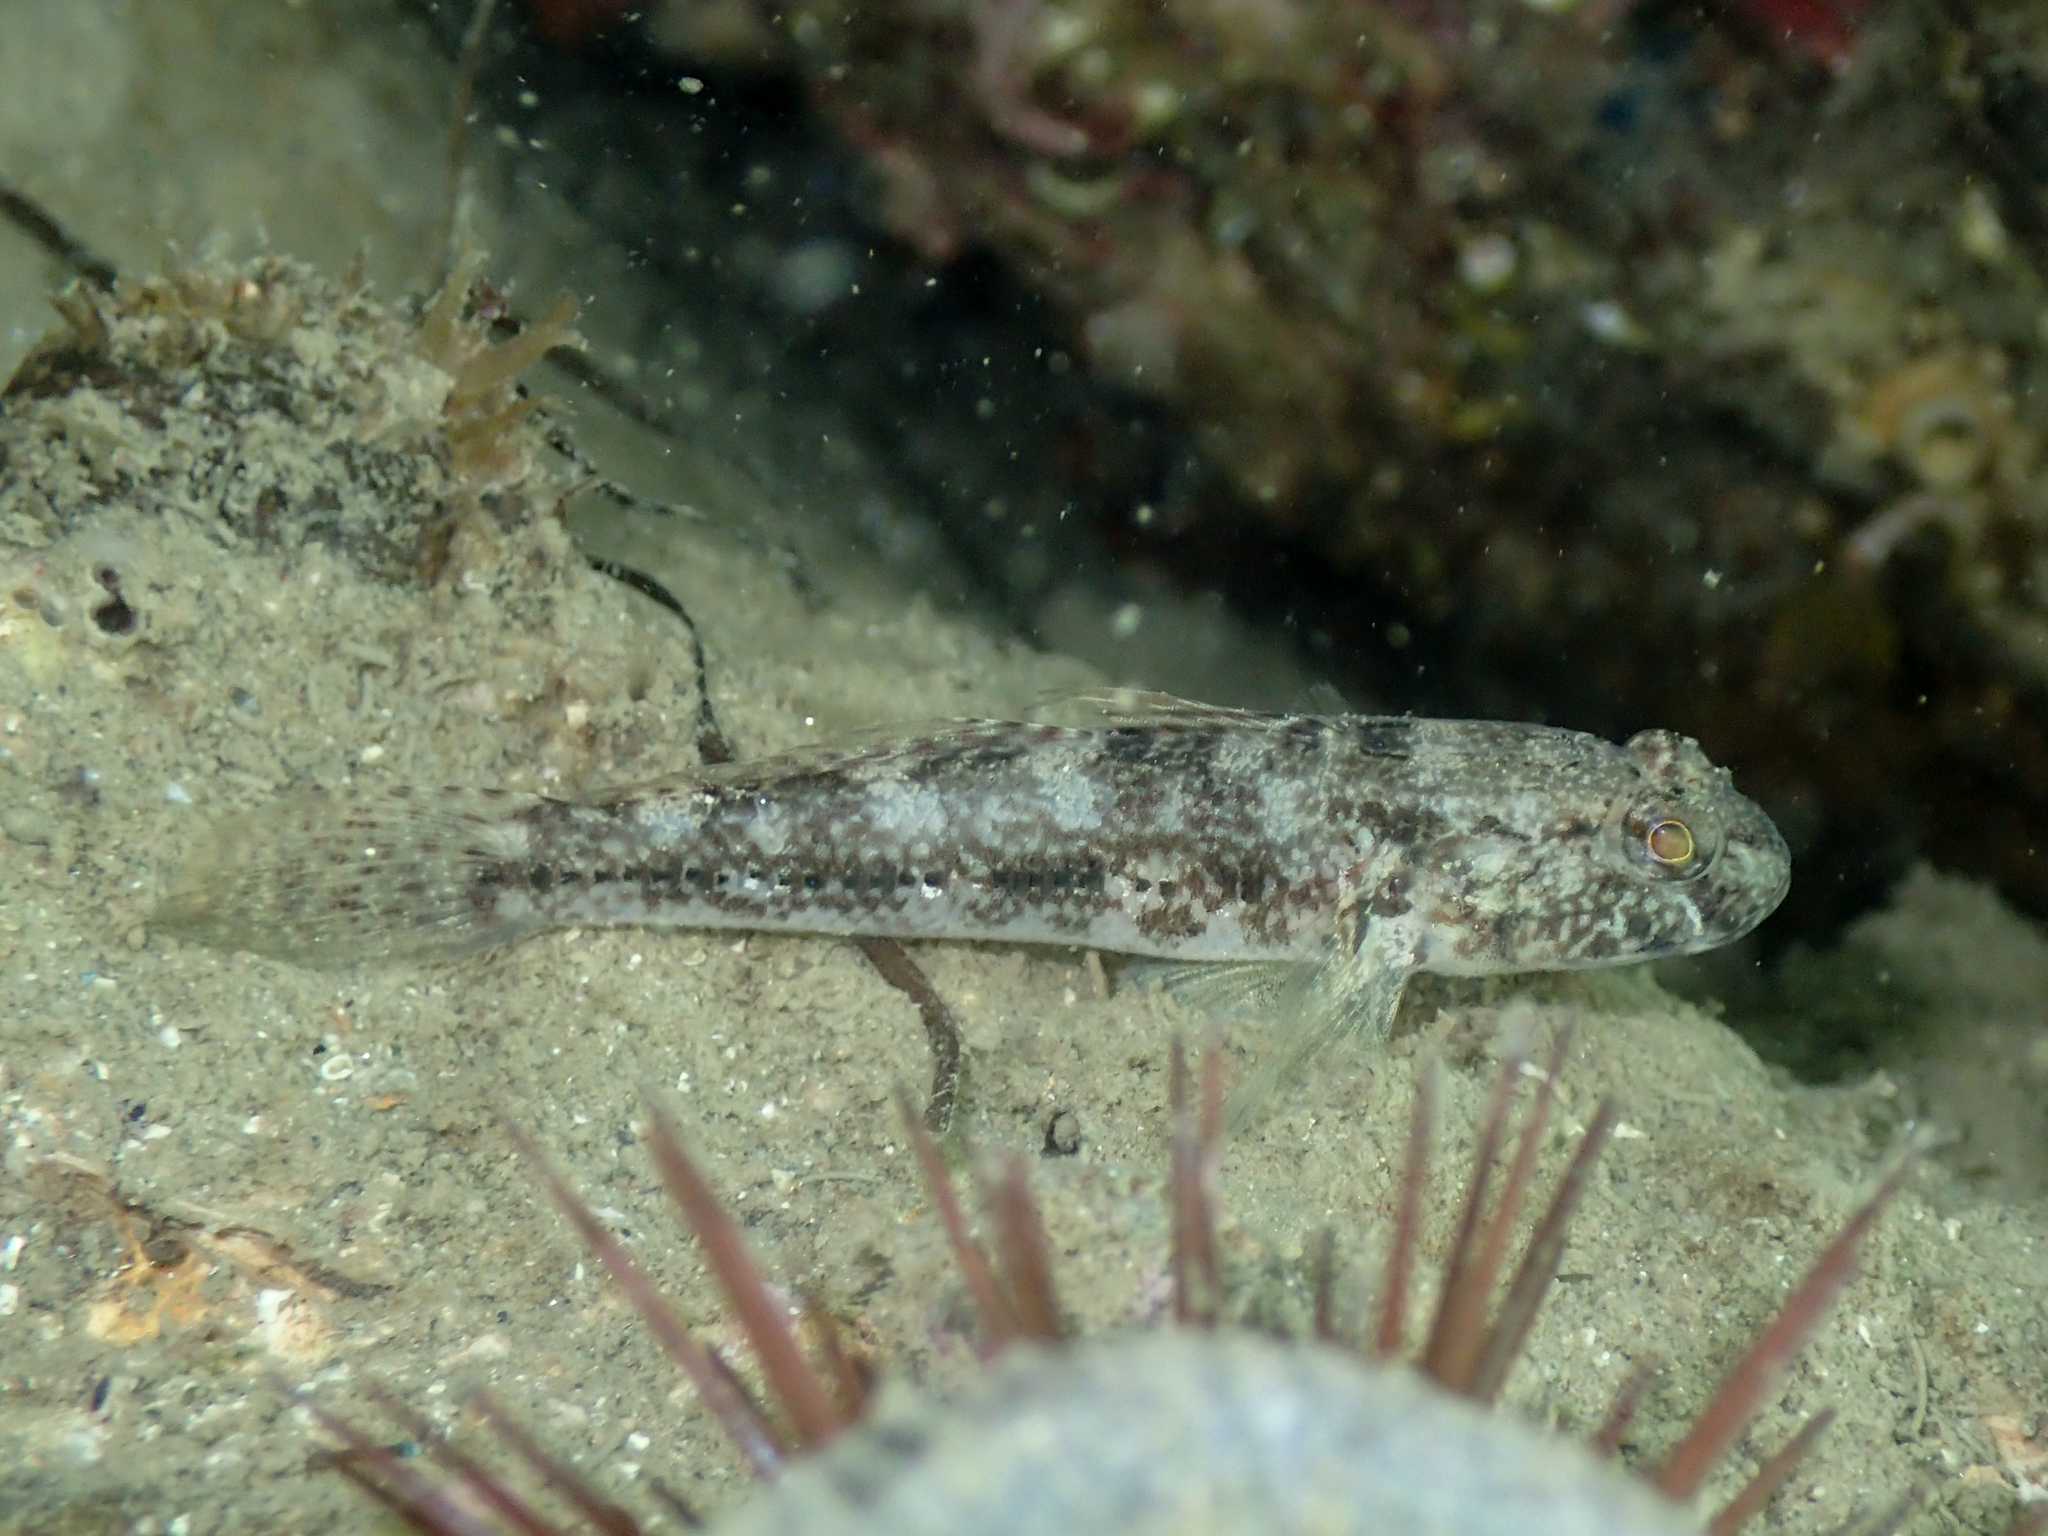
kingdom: Animalia
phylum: Chordata
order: Perciformes
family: Gobiidae
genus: Gobius
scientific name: Gobius niger
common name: Black goby
